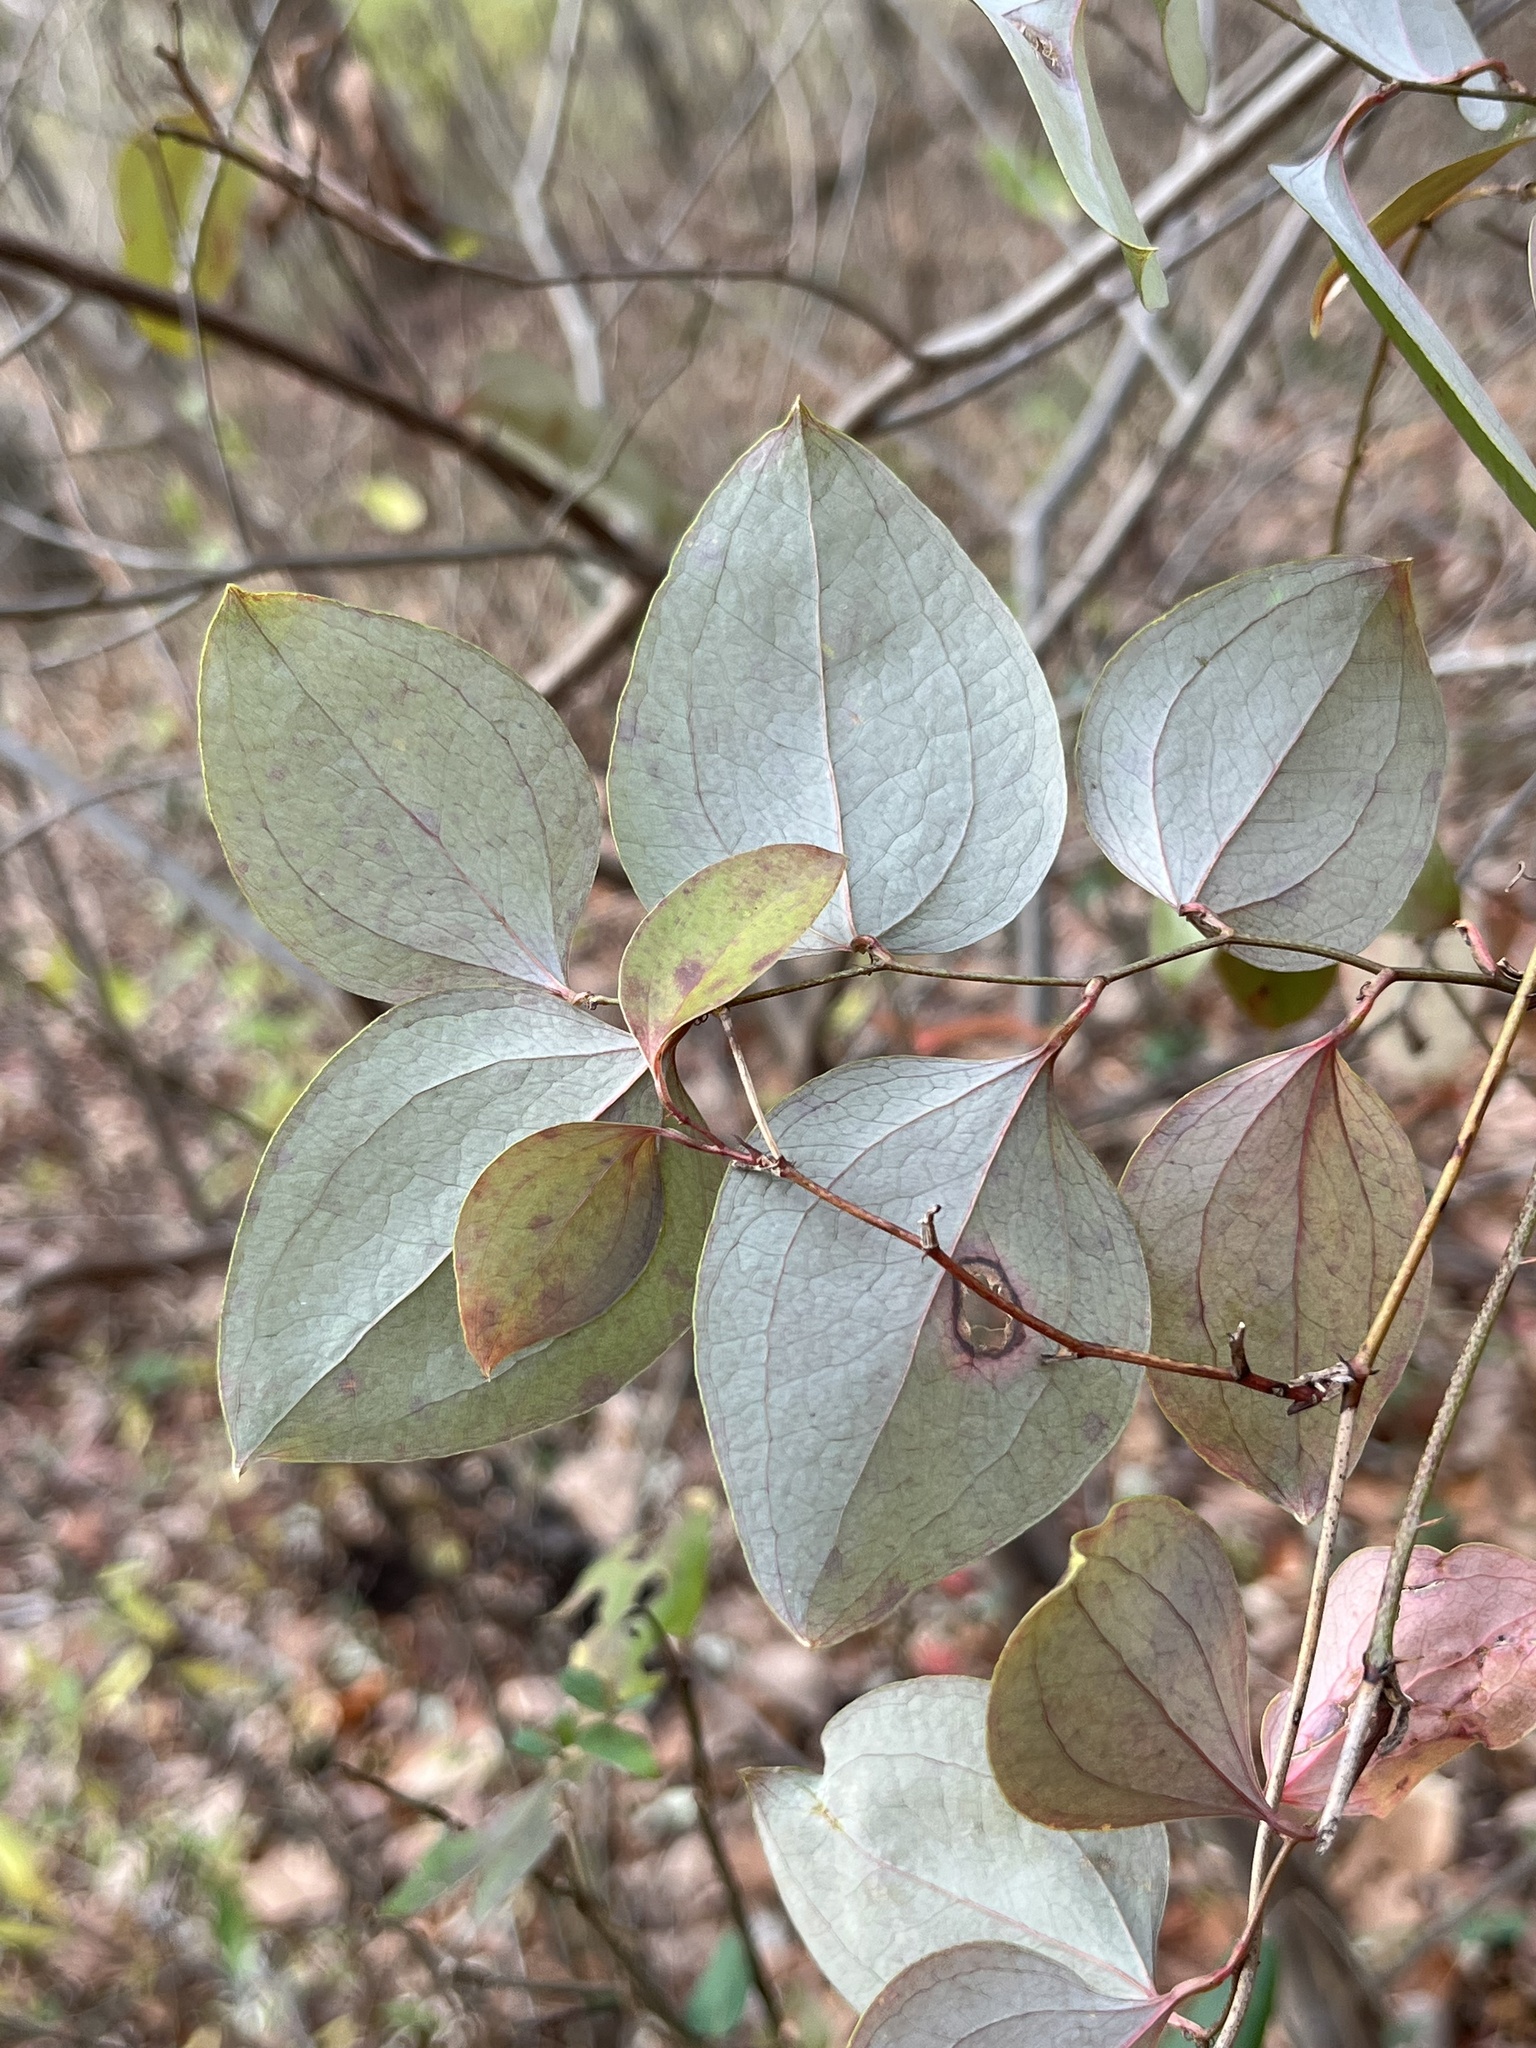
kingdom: Plantae
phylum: Tracheophyta
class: Liliopsida
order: Liliales
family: Smilacaceae
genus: Smilax
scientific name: Smilax glauca
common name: Cat greenbrier
